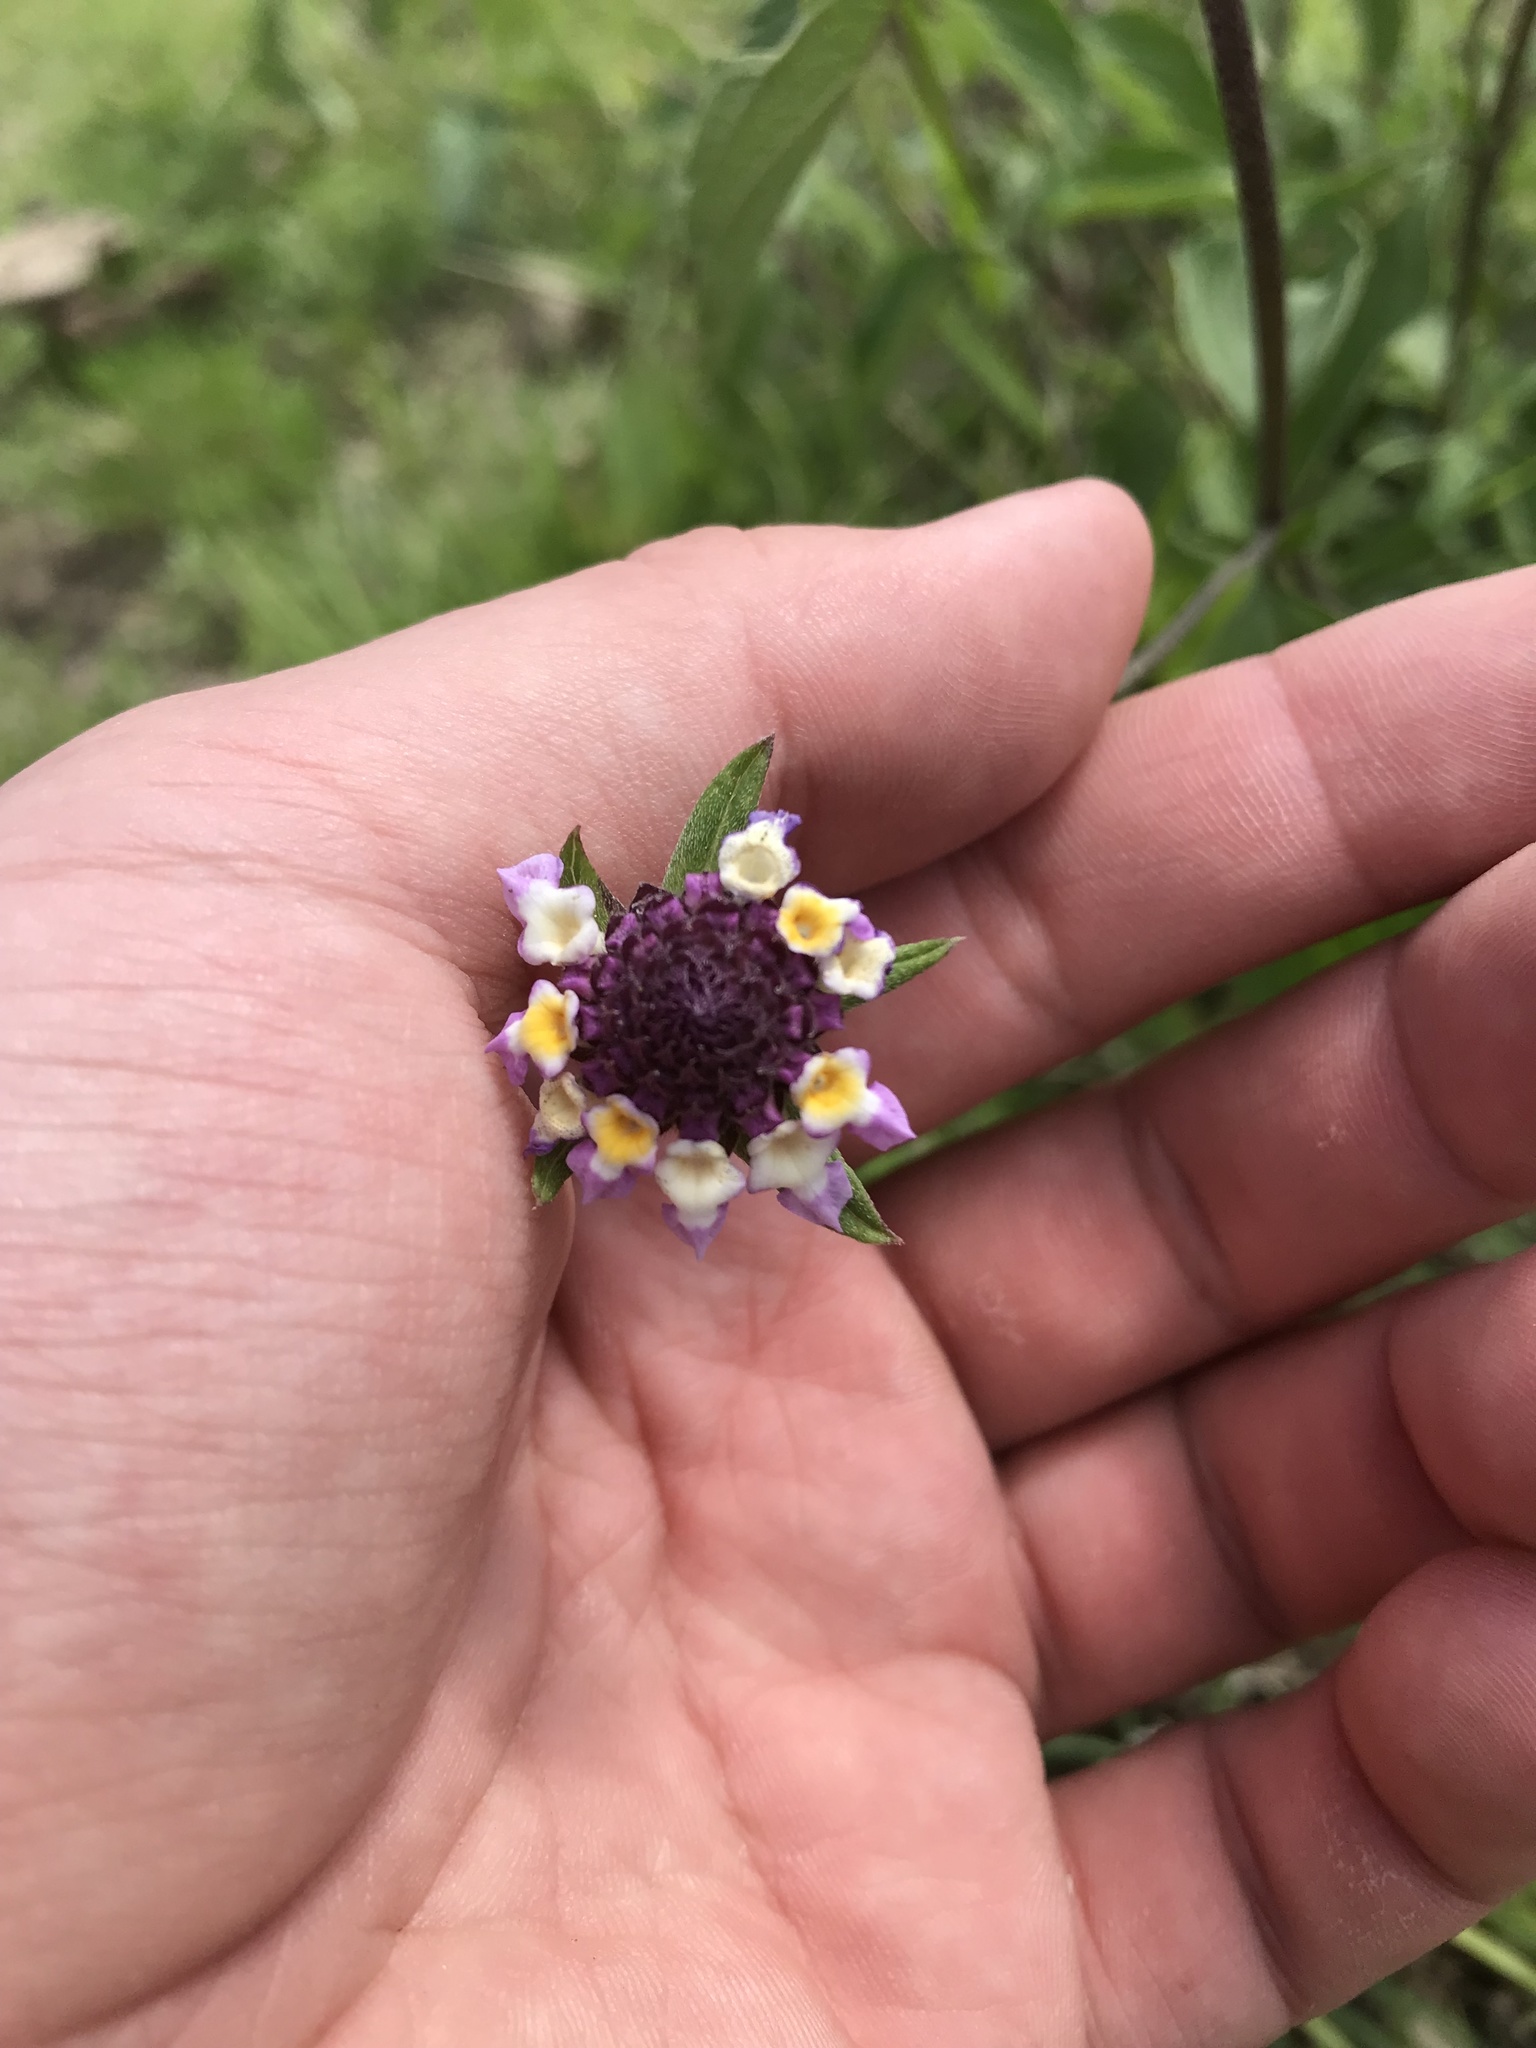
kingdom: Plantae
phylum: Tracheophyta
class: Magnoliopsida
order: Lamiales
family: Verbenaceae
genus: Phyla
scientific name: Phyla nodiflora
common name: Frogfruit
